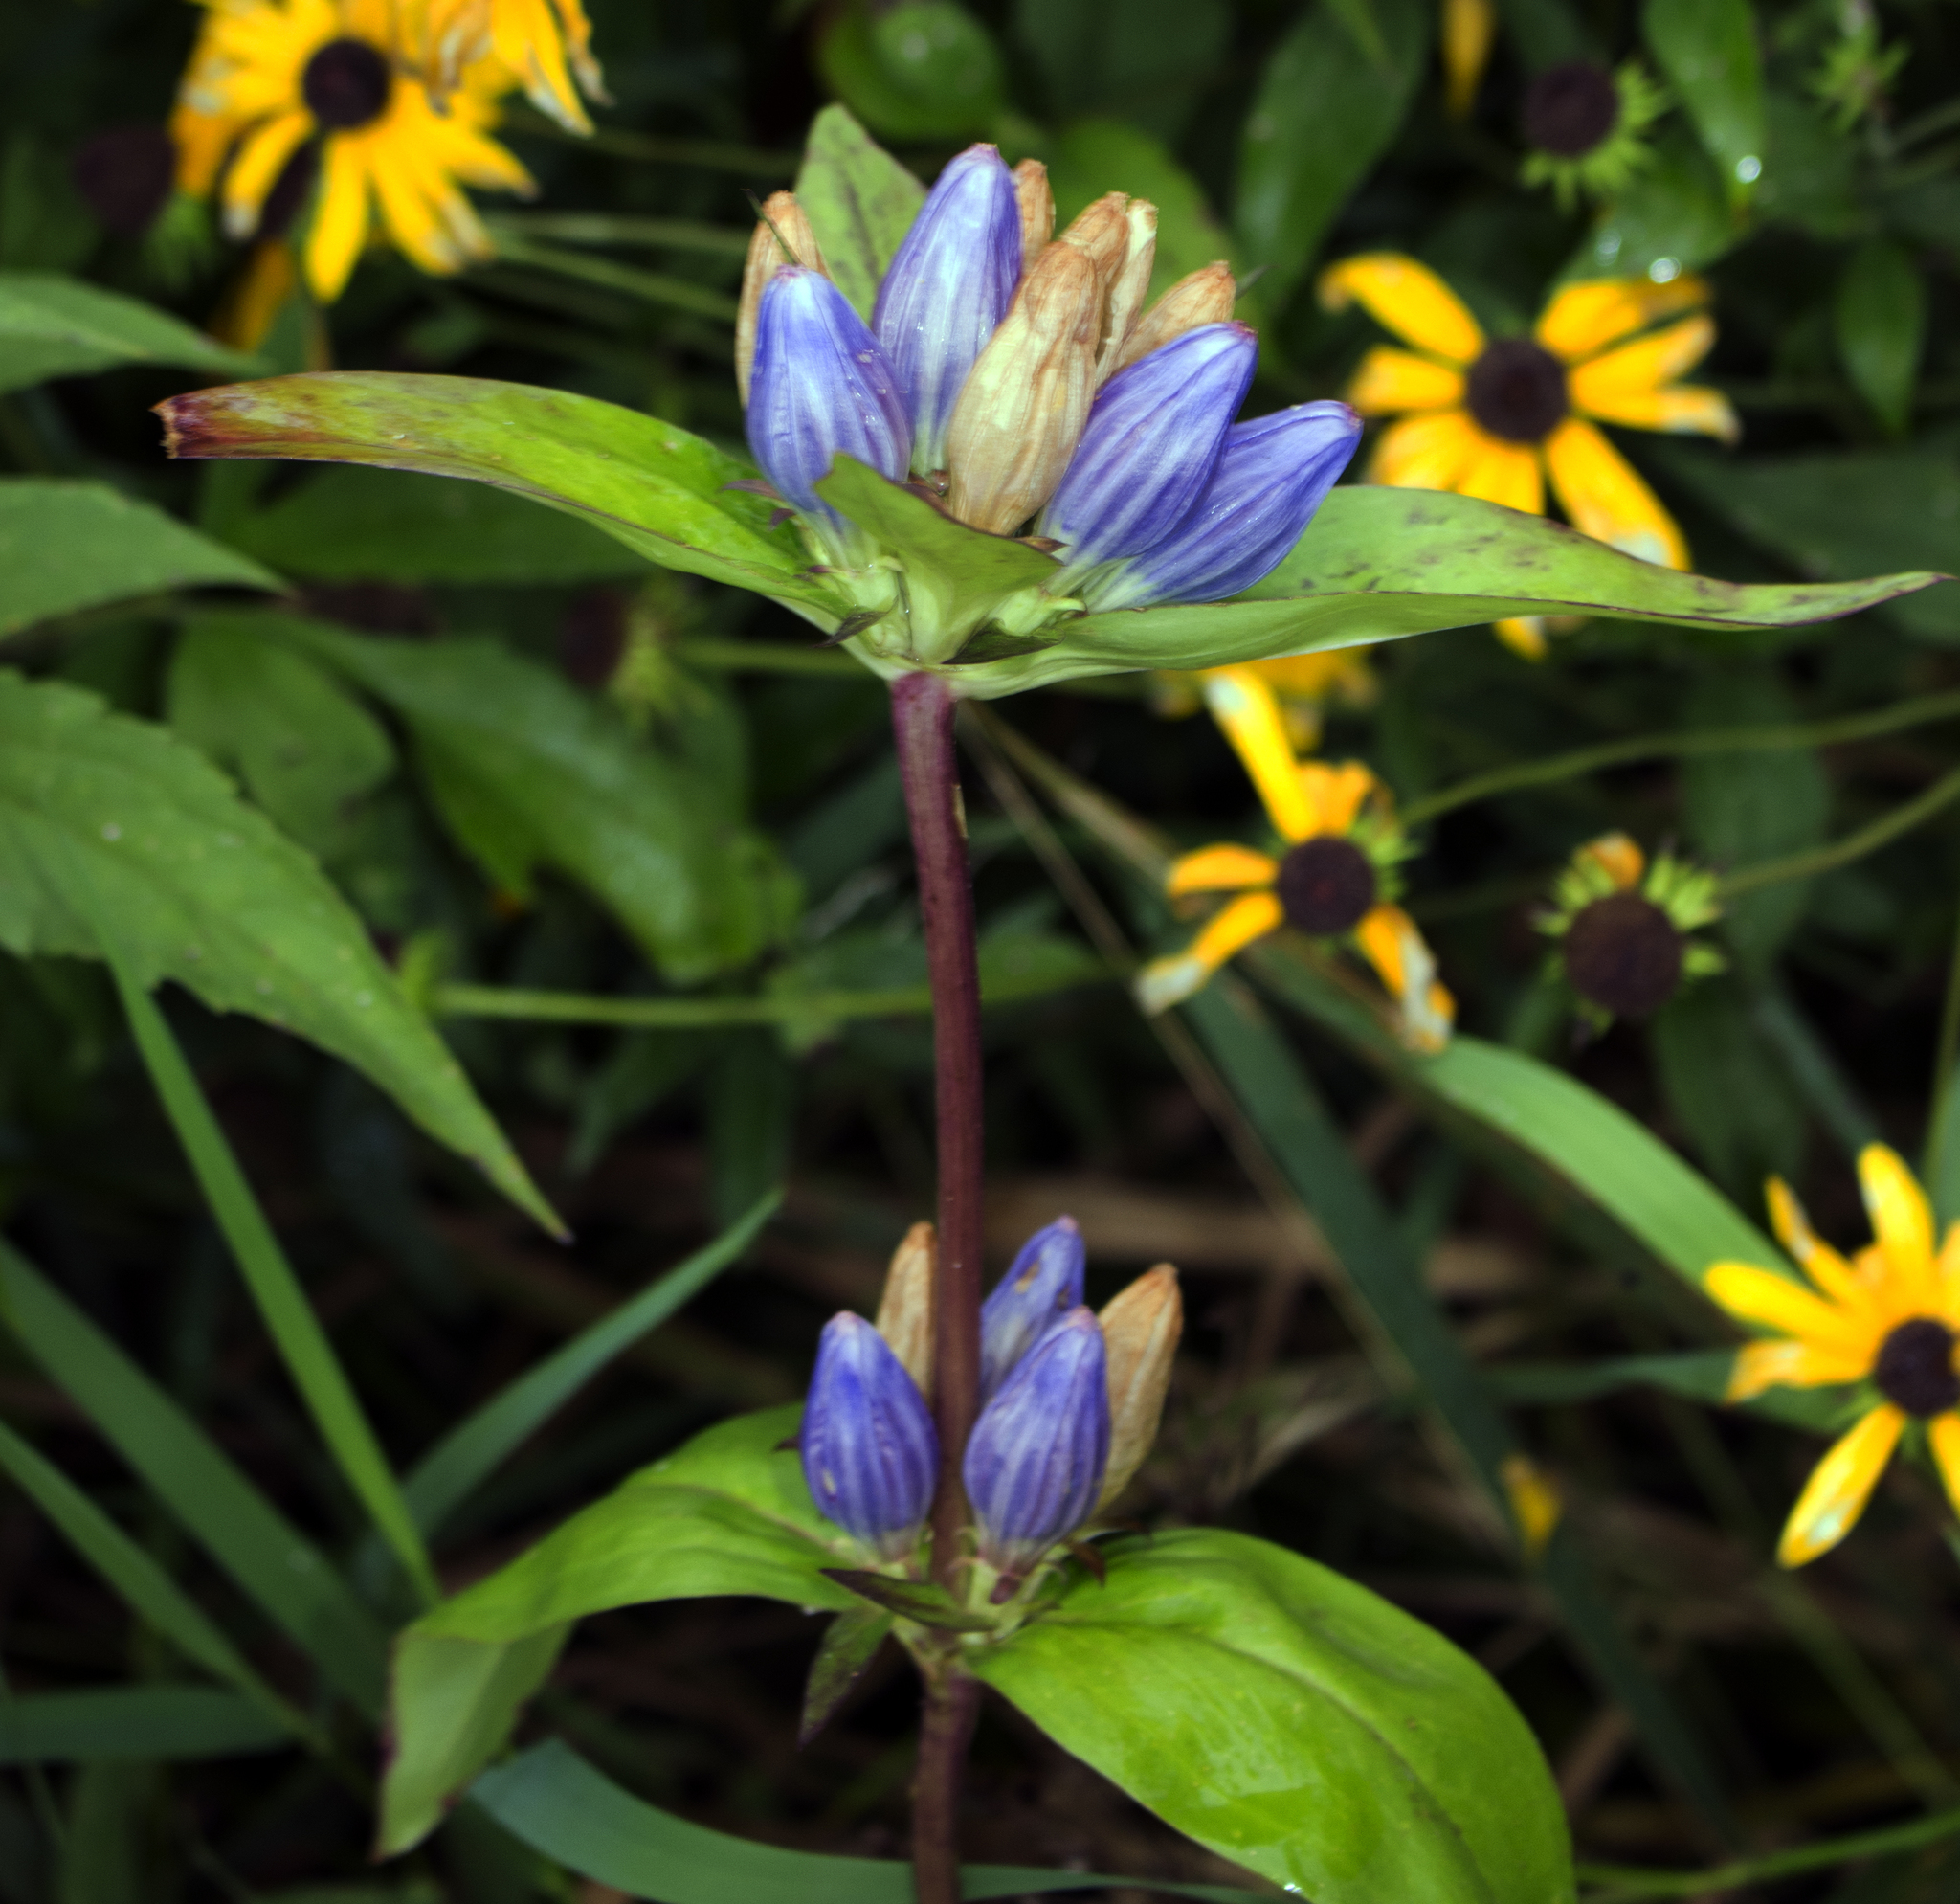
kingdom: Plantae
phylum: Tracheophyta
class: Magnoliopsida
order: Gentianales
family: Gentianaceae
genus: Gentiana
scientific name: Gentiana andrewsii
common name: Bottle gentian
